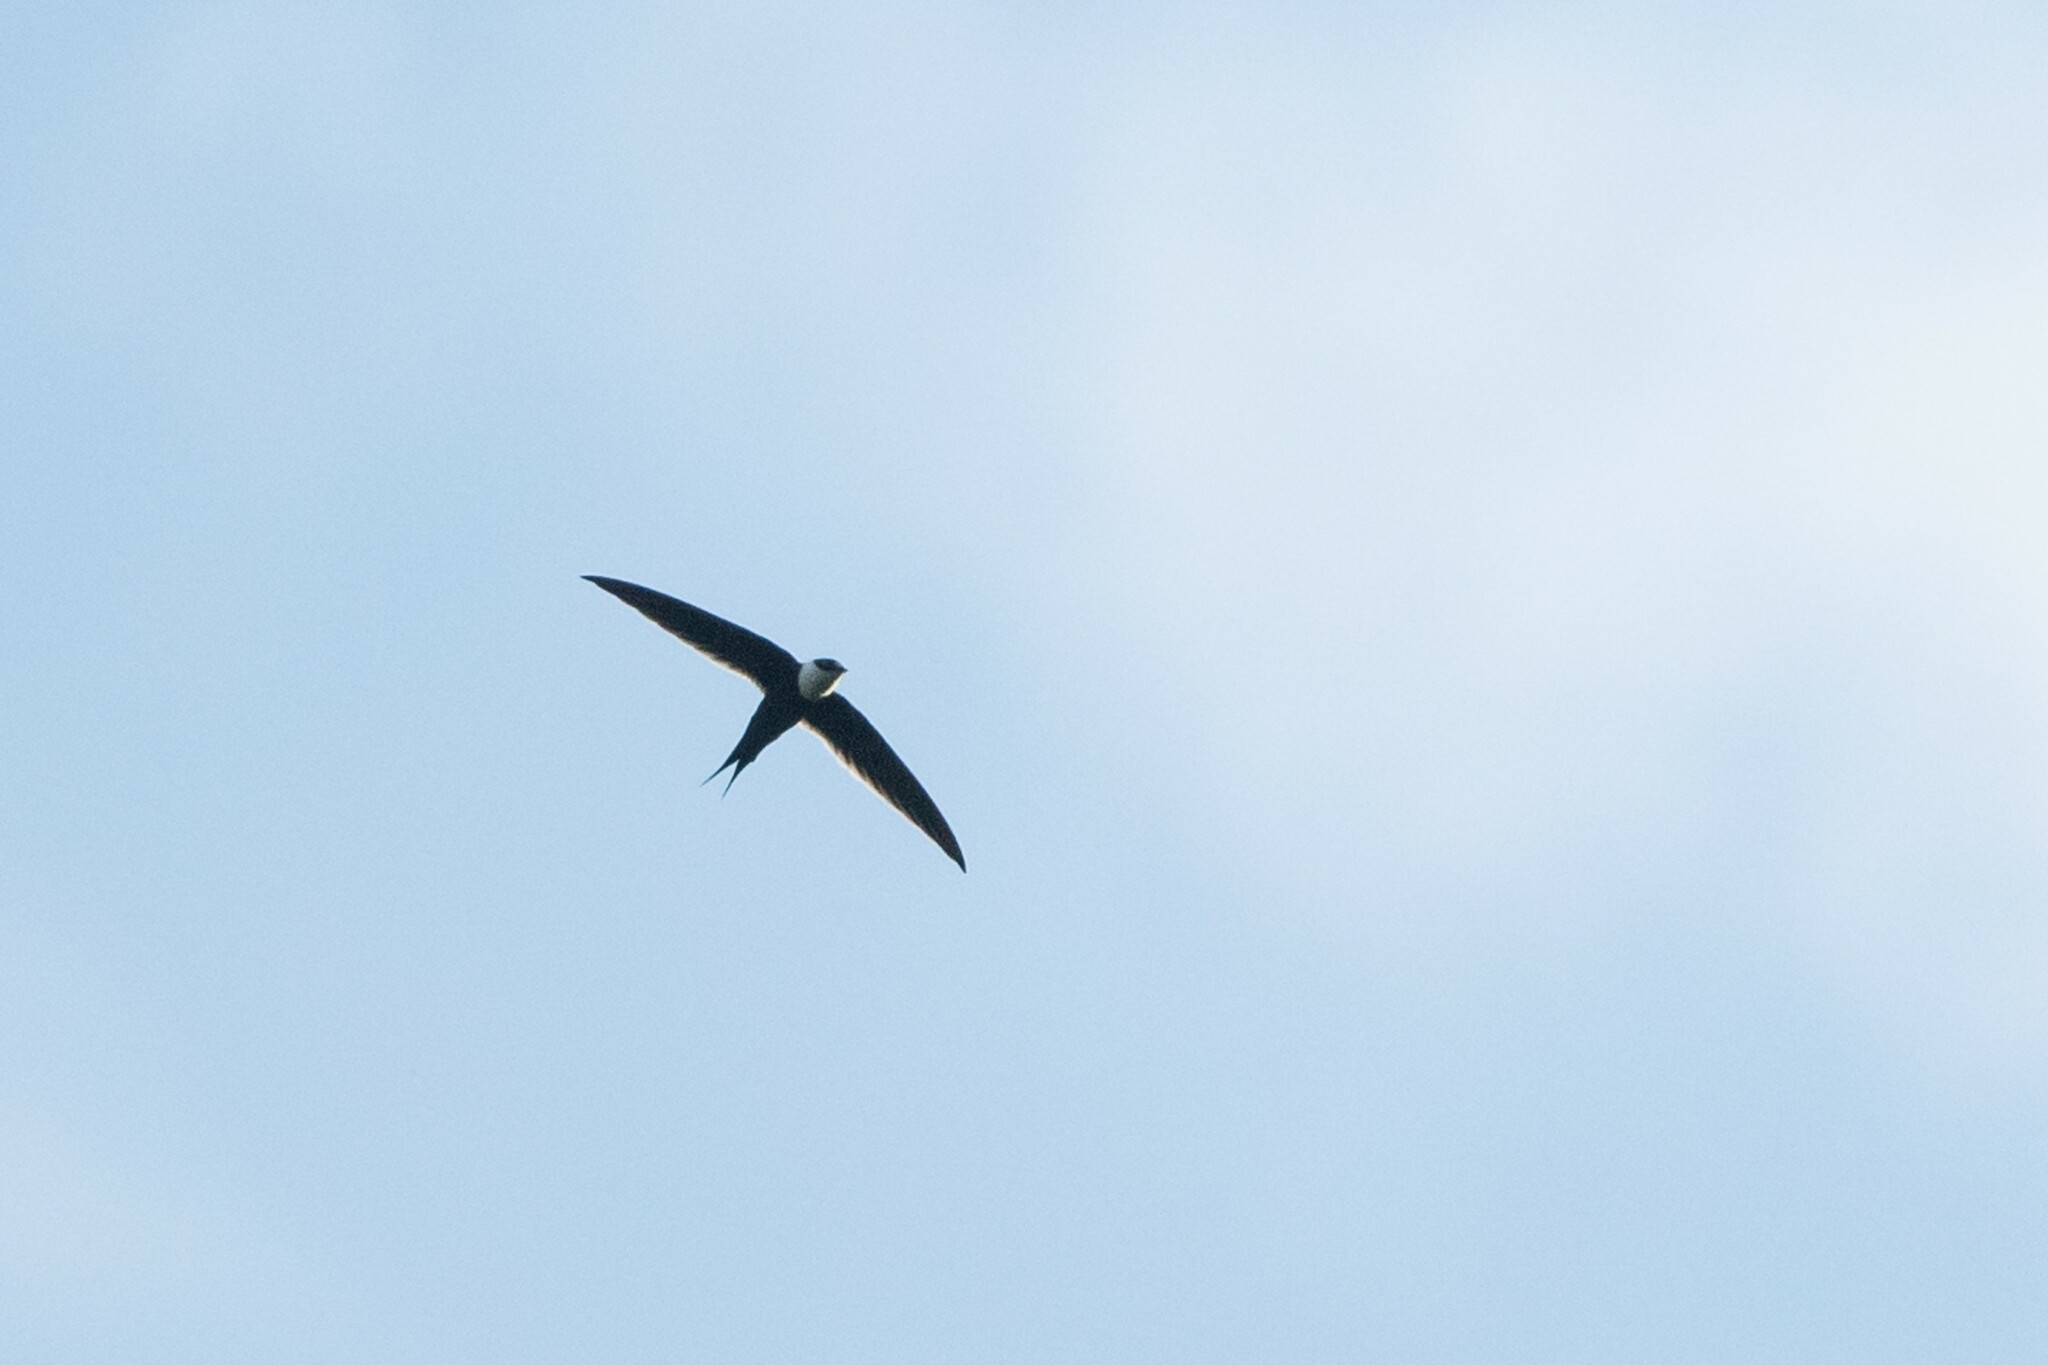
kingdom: Animalia
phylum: Chordata
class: Aves
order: Apodiformes
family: Apodidae
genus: Panyptila
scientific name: Panyptila sanctihieronymi
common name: Great swallow-tailed swift
